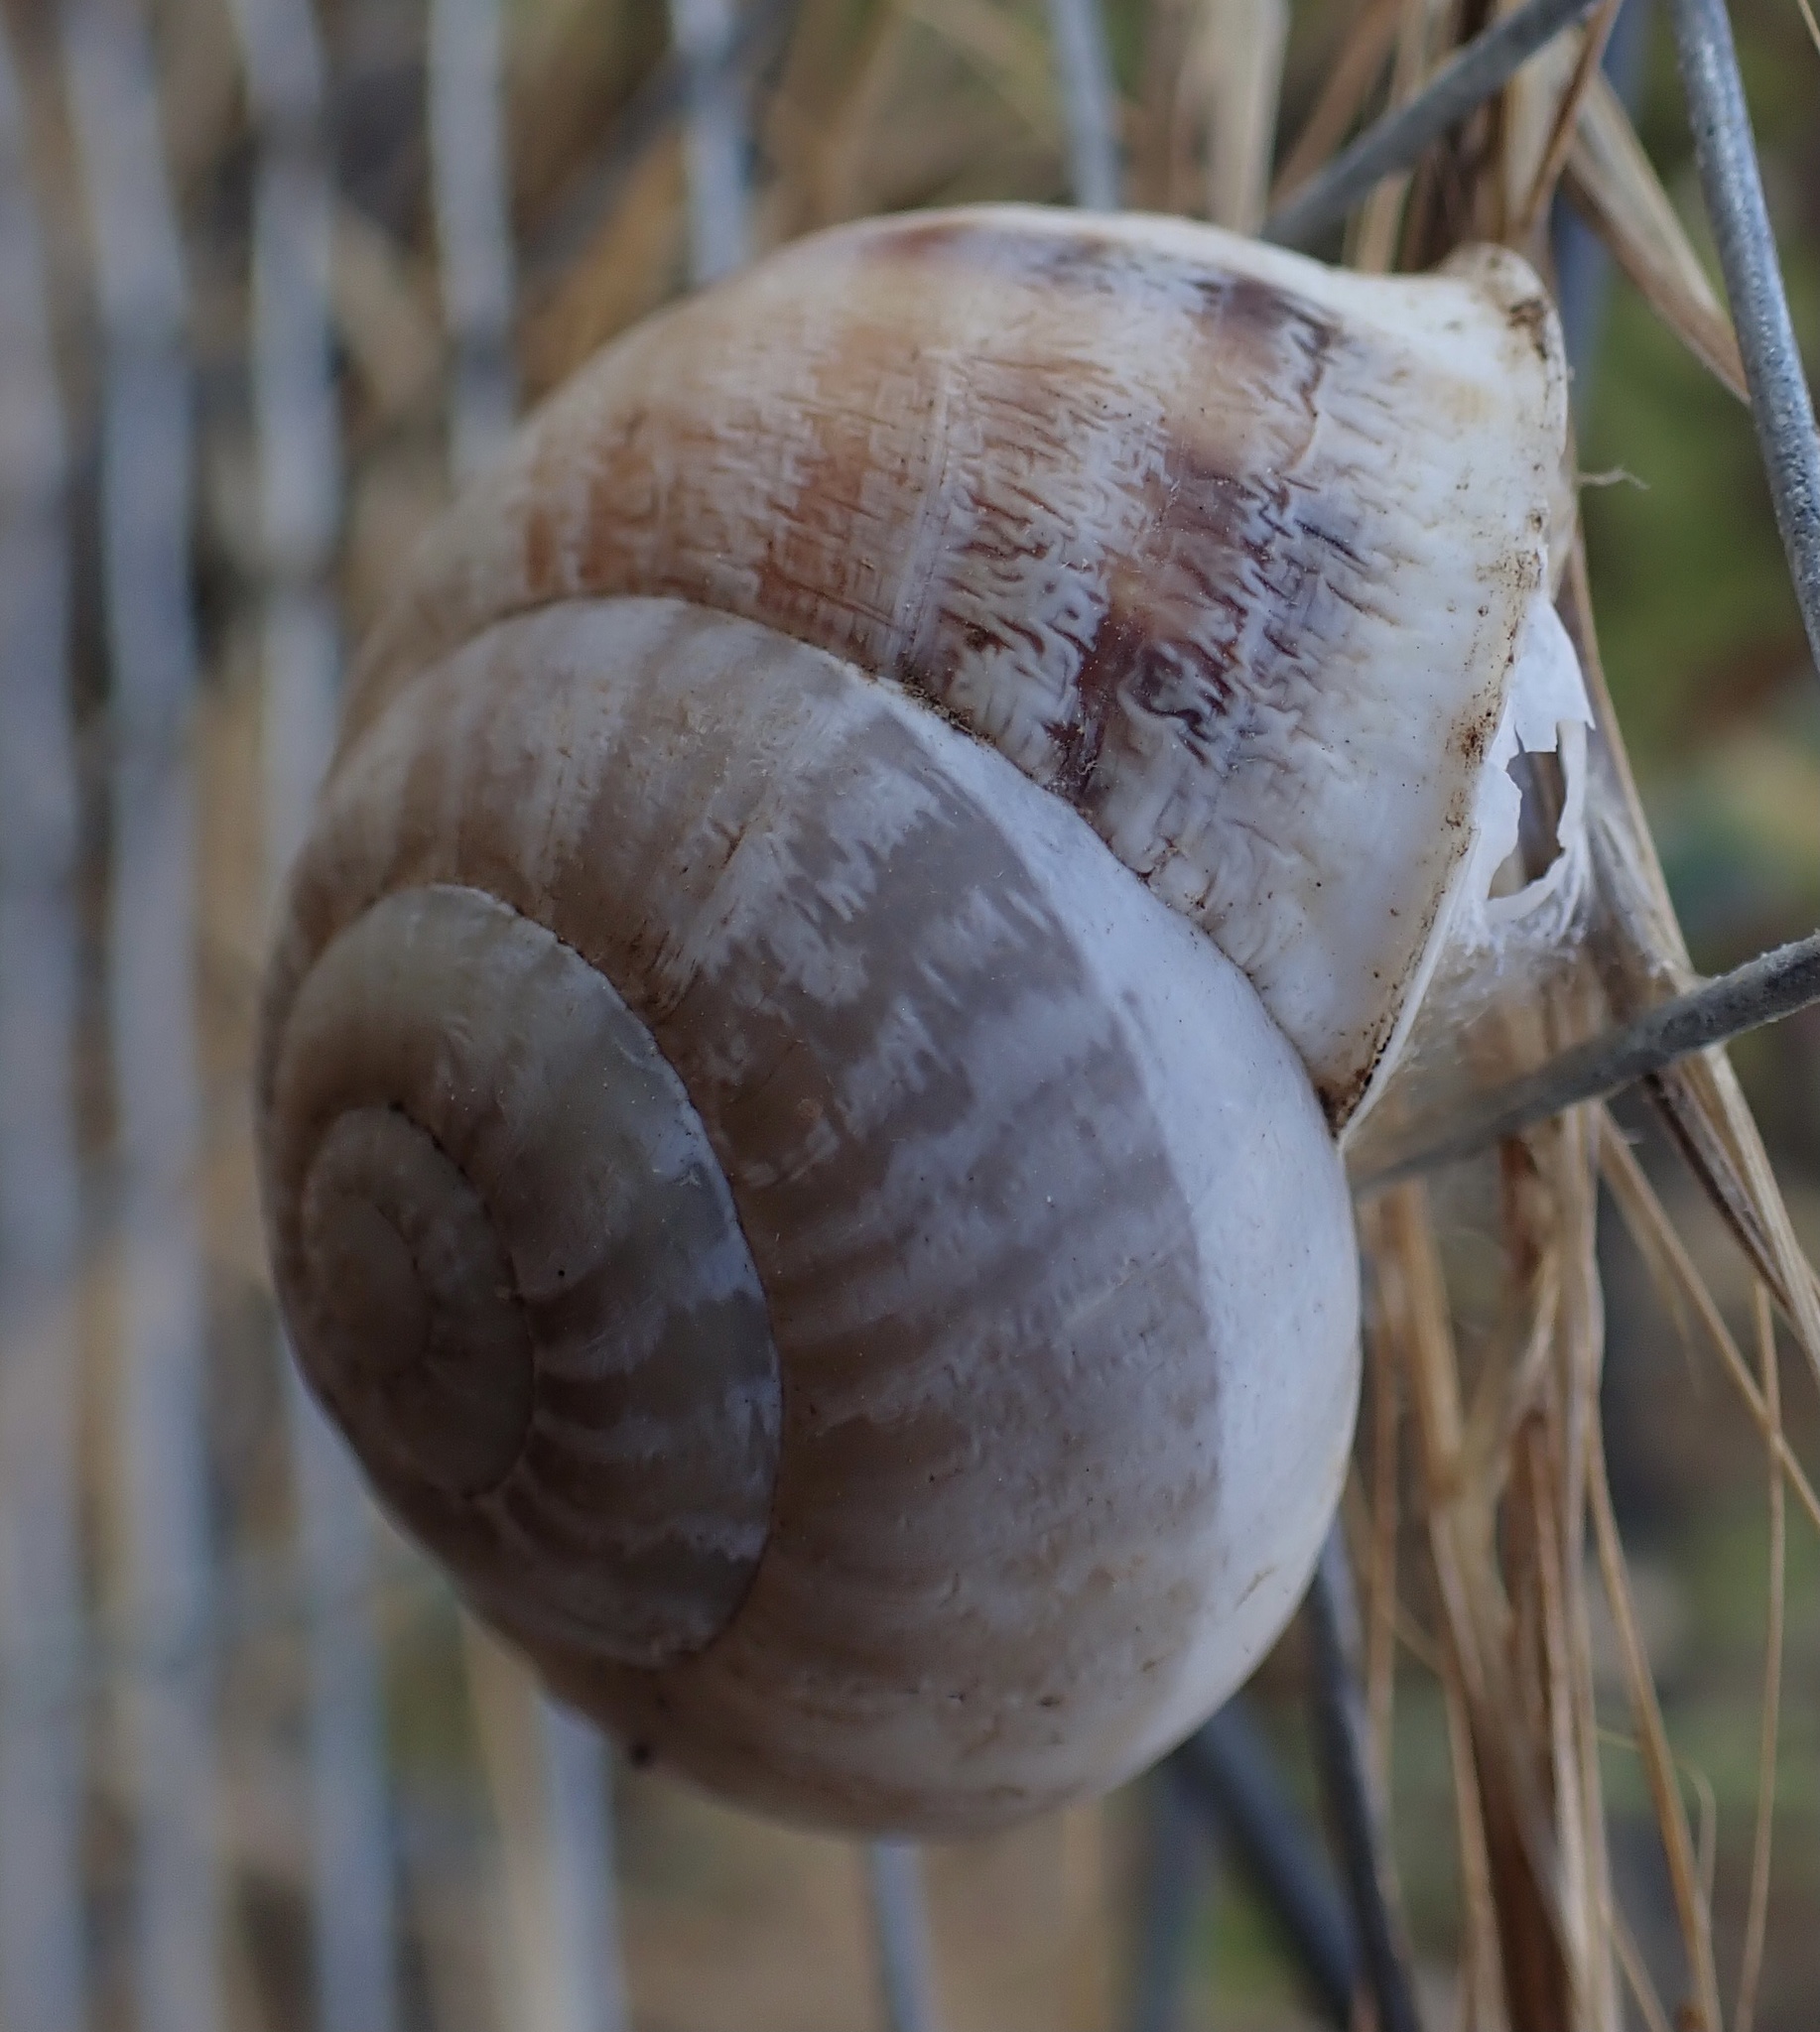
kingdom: Animalia
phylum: Mollusca
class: Gastropoda
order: Stylommatophora
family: Helicidae
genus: Eobania
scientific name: Eobania vermiculata
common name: Chocolateband snail
